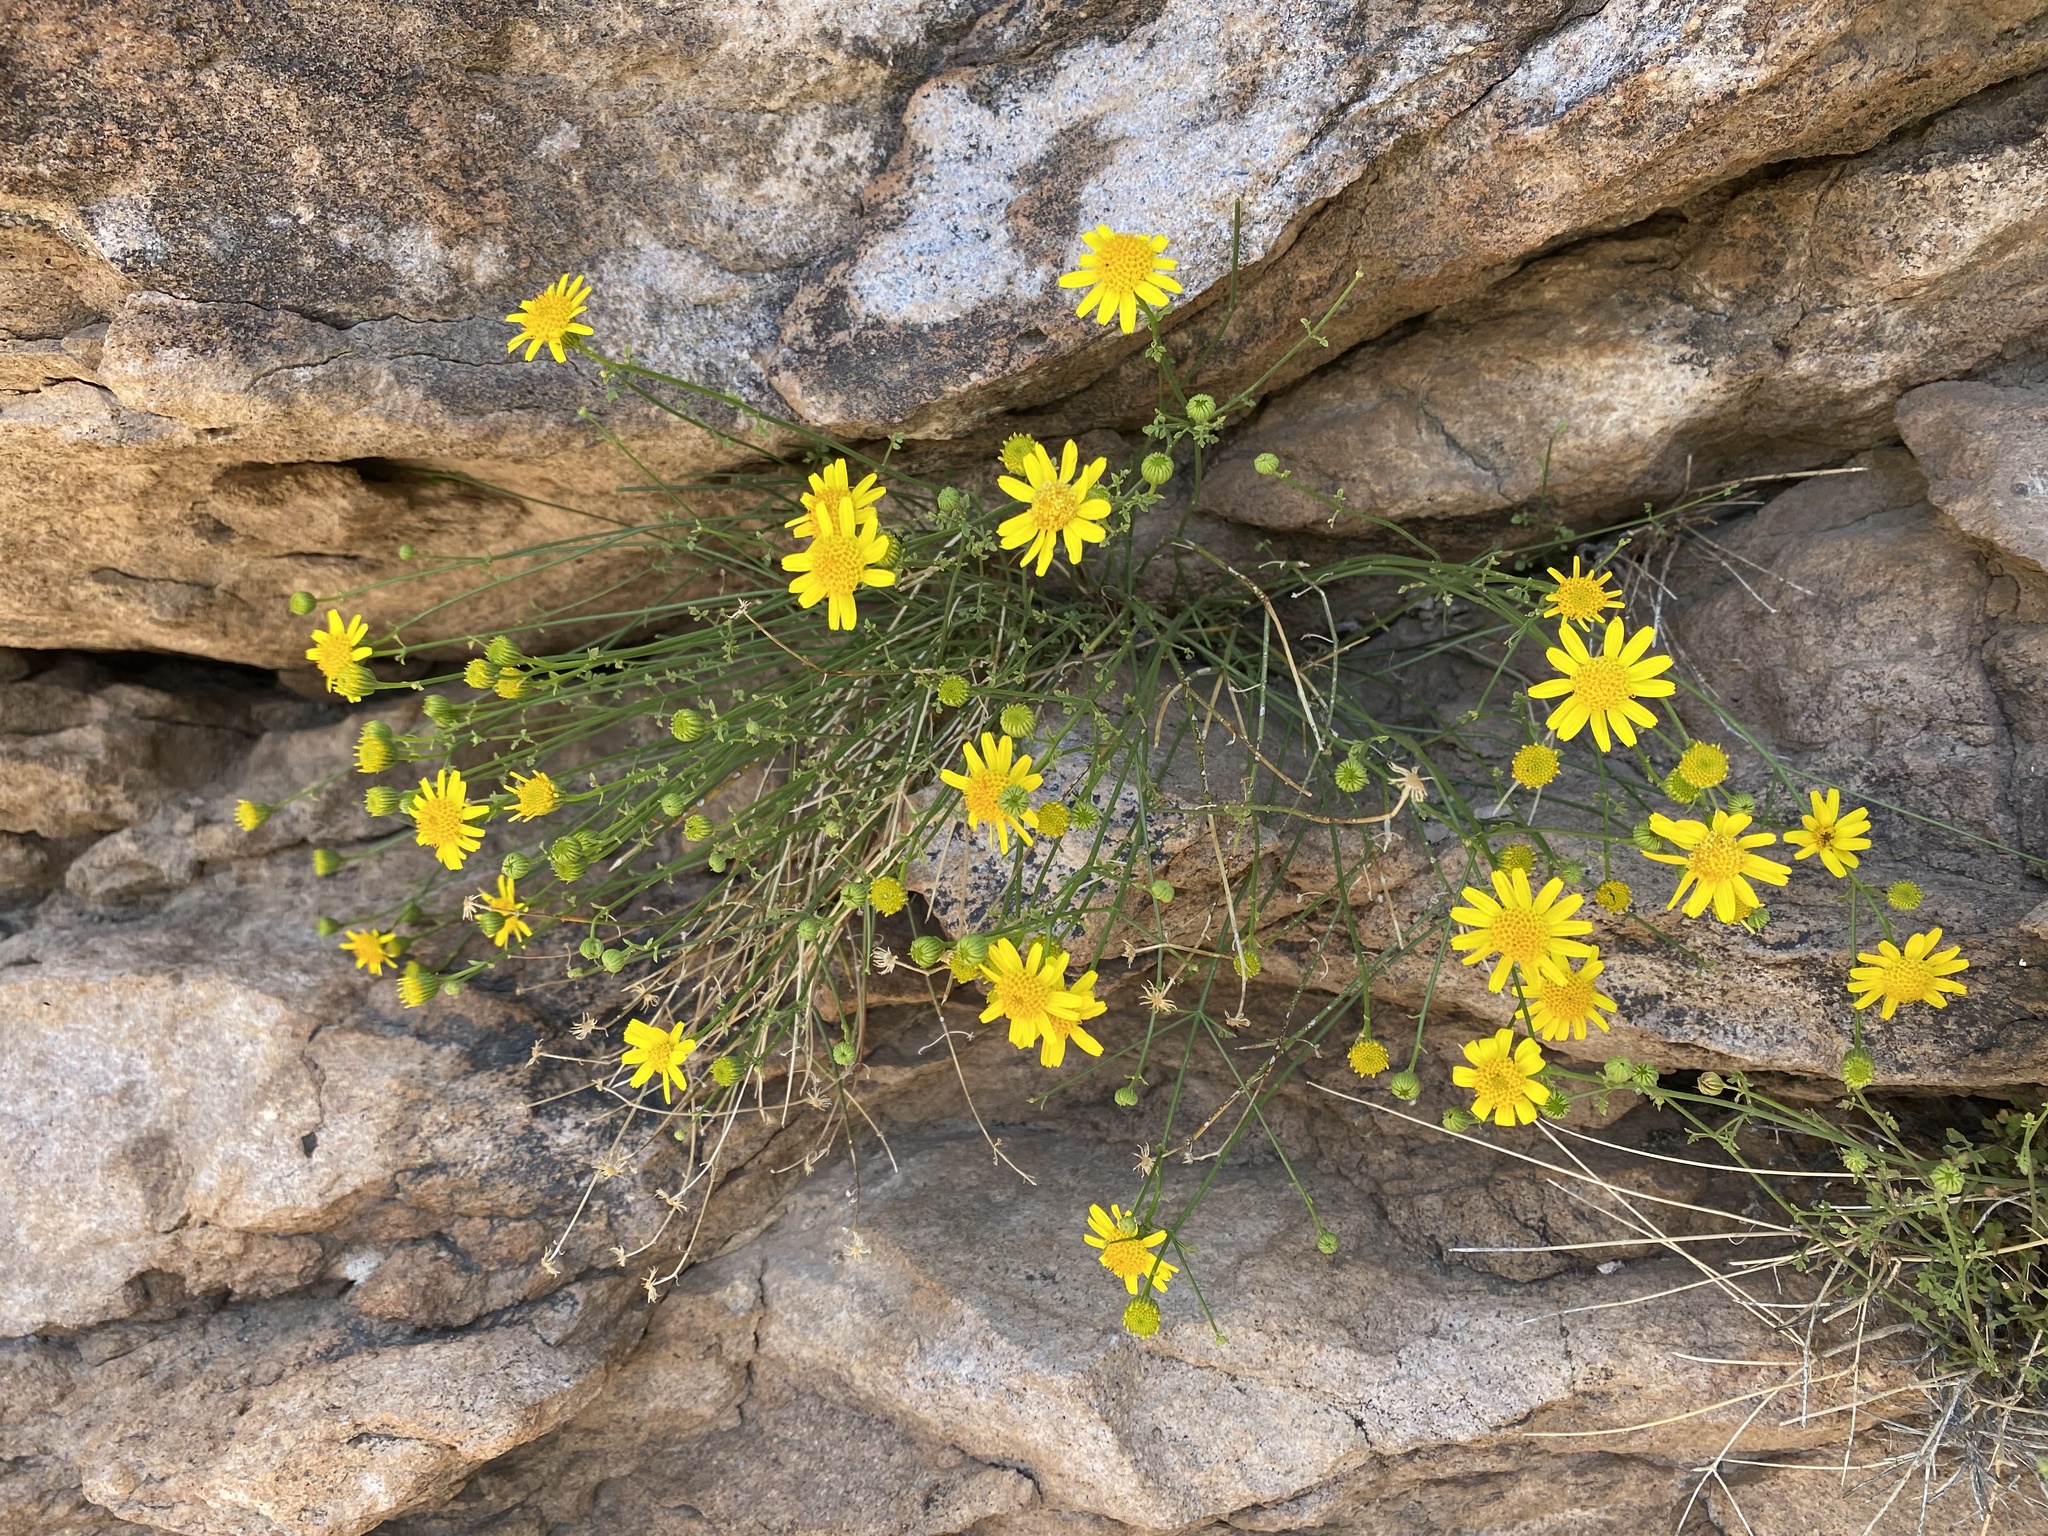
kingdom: Plantae
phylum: Tracheophyta
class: Magnoliopsida
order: Asterales
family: Asteraceae
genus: Laphamia
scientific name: Laphamia gilensis
